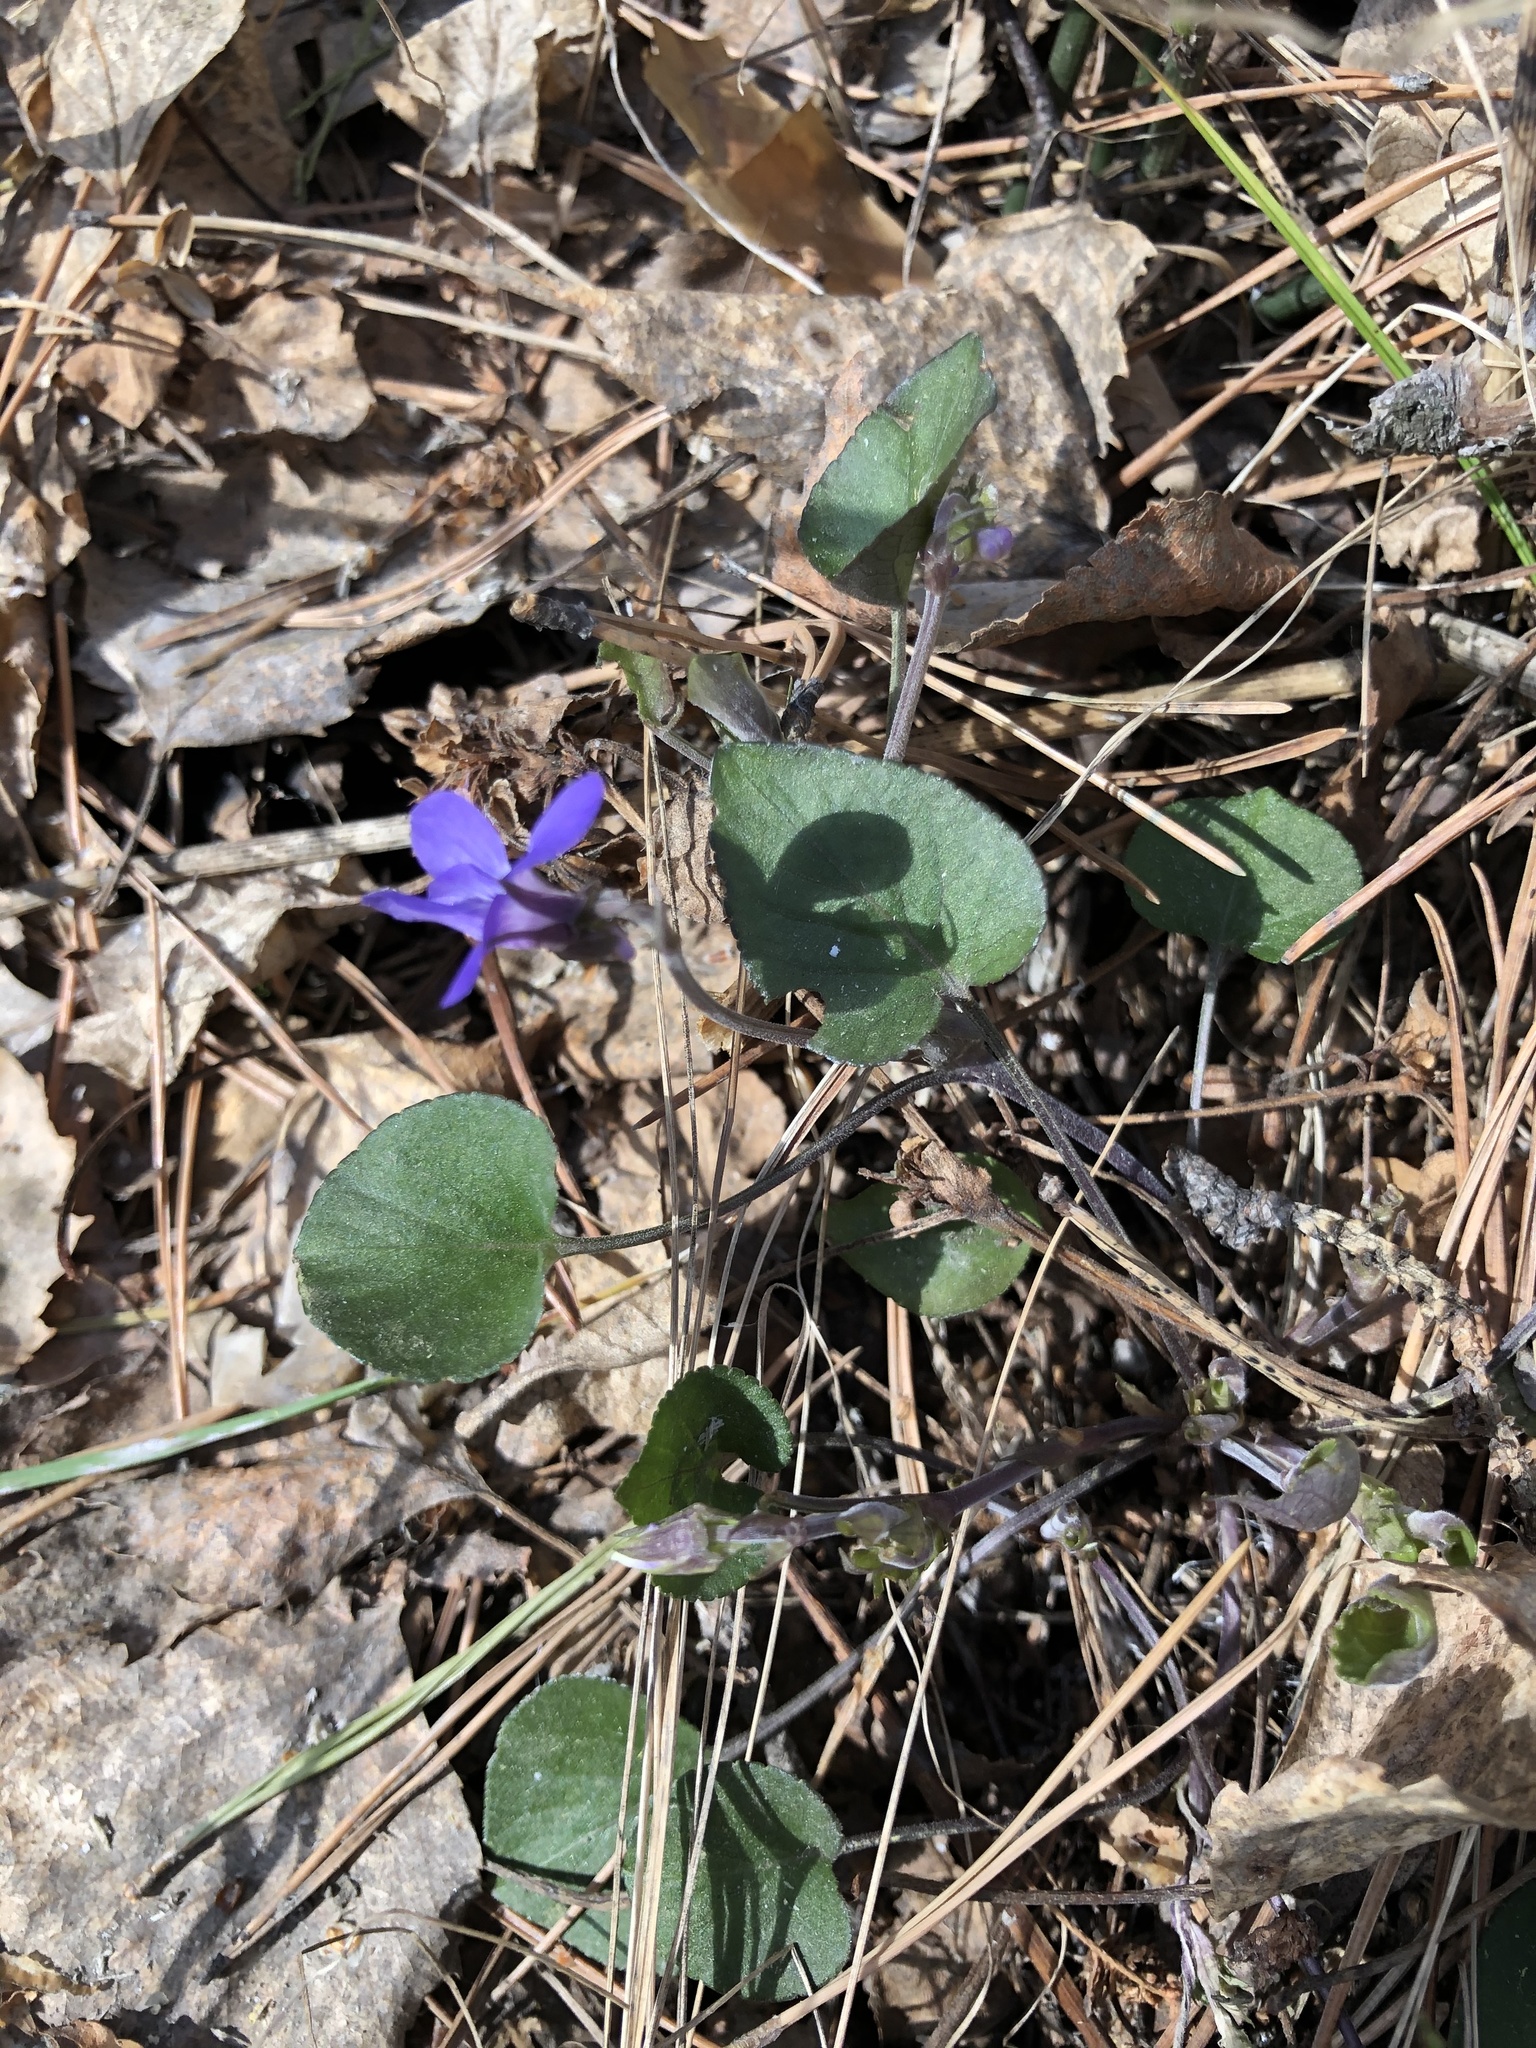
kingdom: Plantae
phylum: Tracheophyta
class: Magnoliopsida
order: Malpighiales
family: Violaceae
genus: Viola
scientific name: Viola rupestris
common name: Teesdale violet
